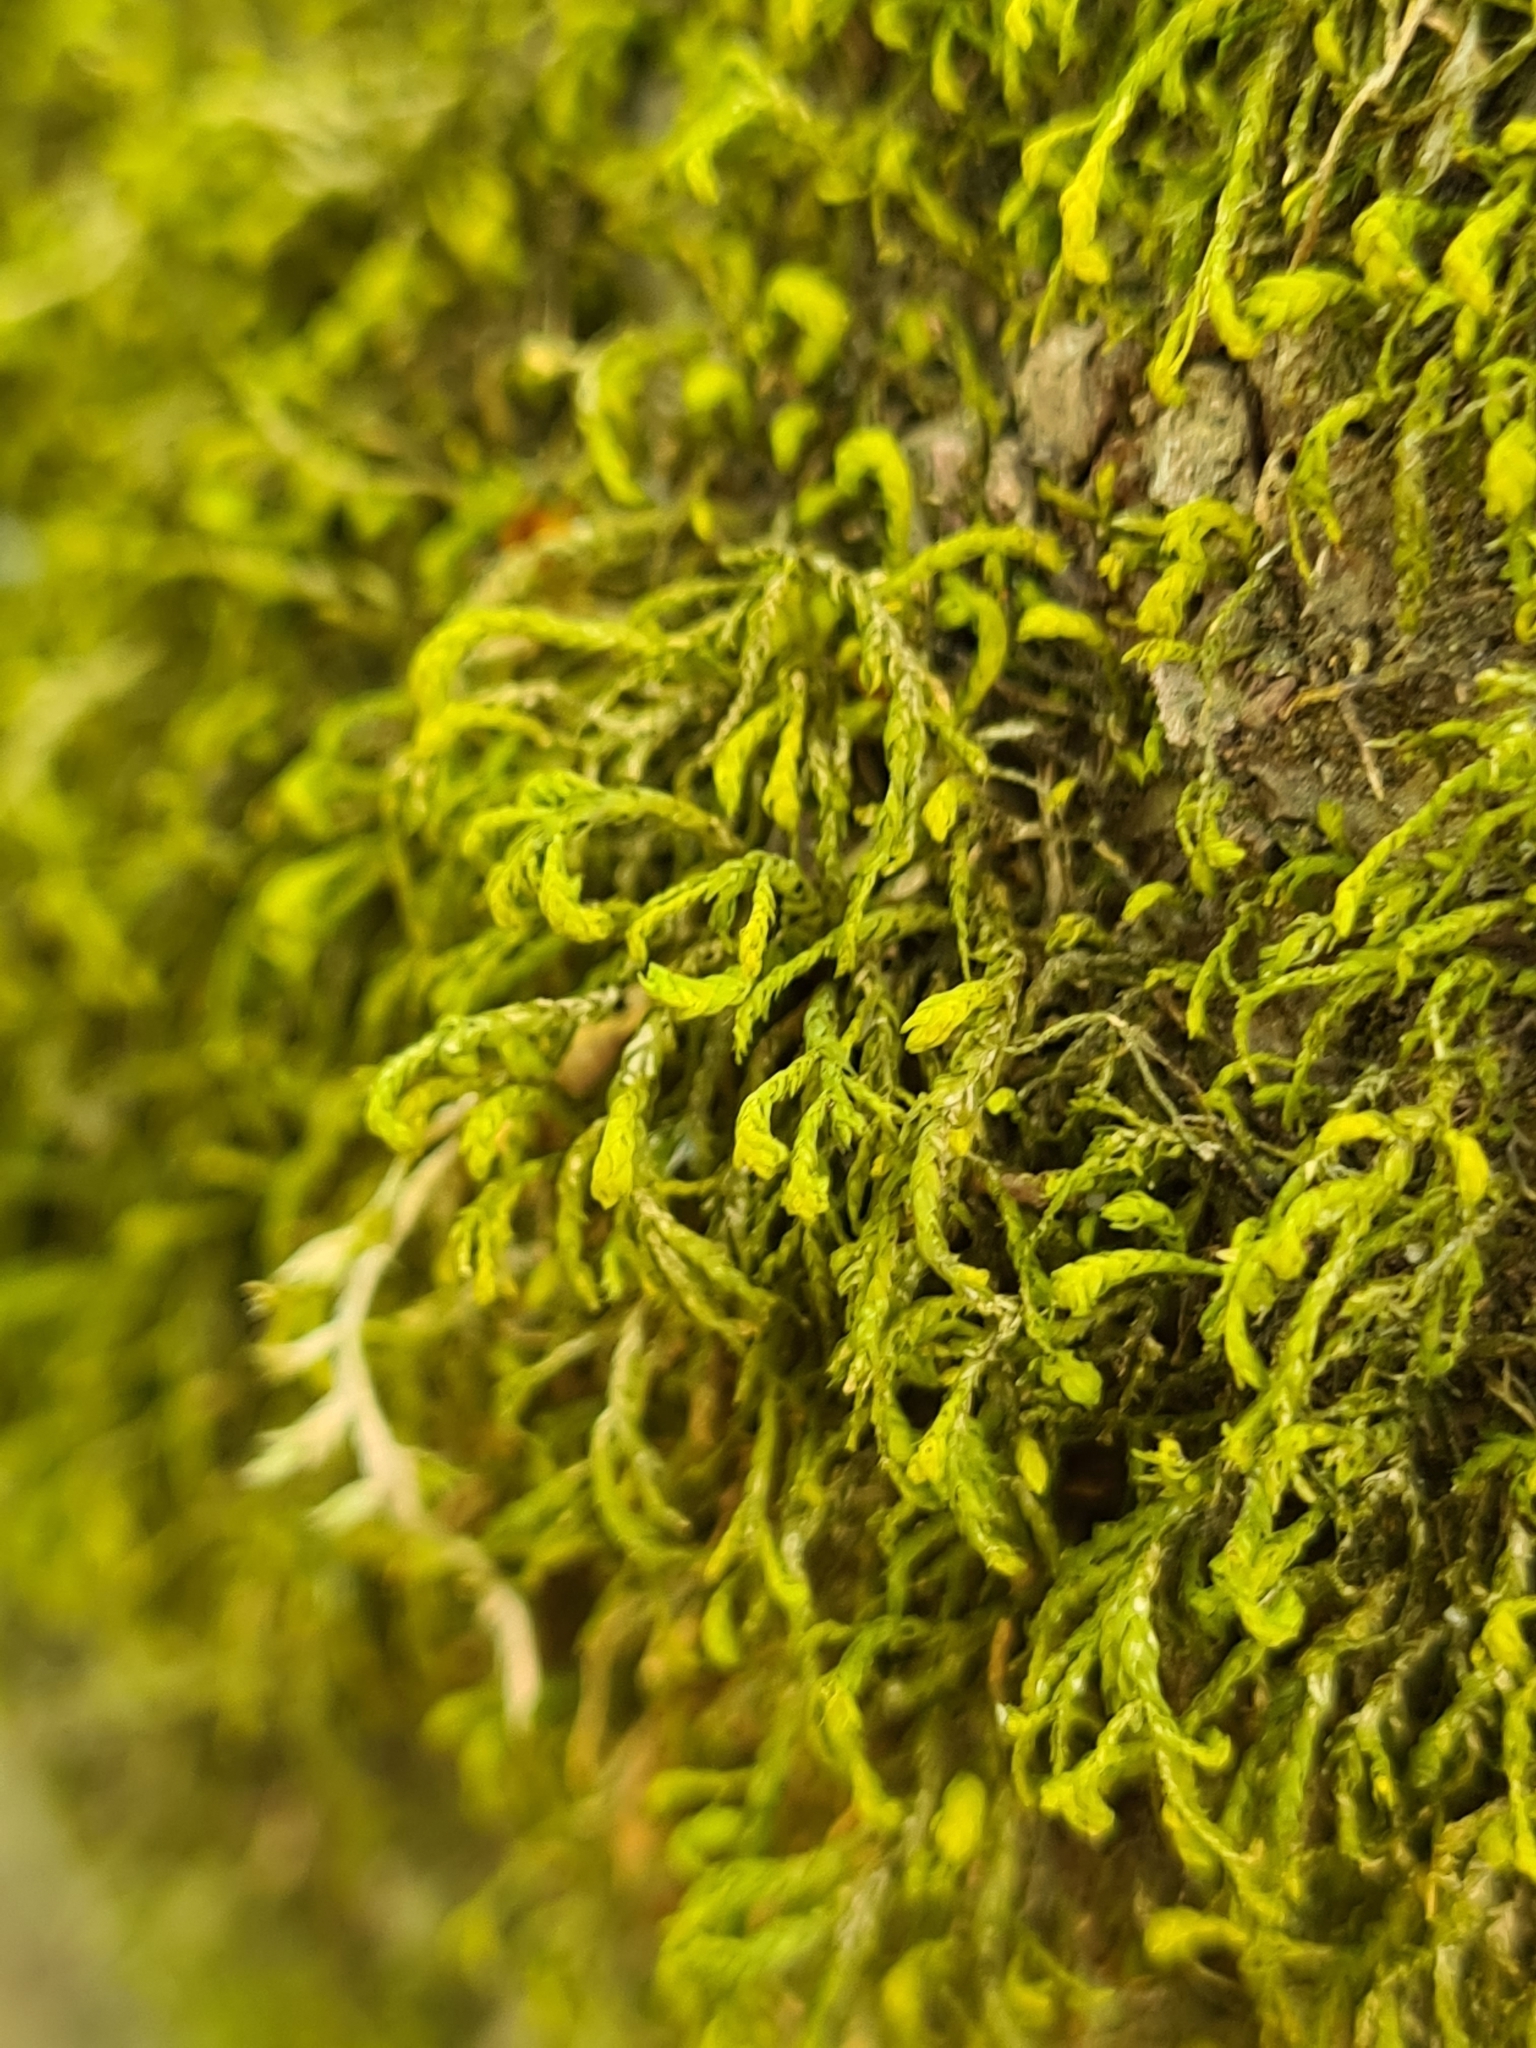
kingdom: Plantae
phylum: Bryophyta
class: Bryopsida
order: Hypnales
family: Neckeraceae
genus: Pseudanomodon
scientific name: Pseudanomodon attenuatus
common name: Tree-skirt moss
